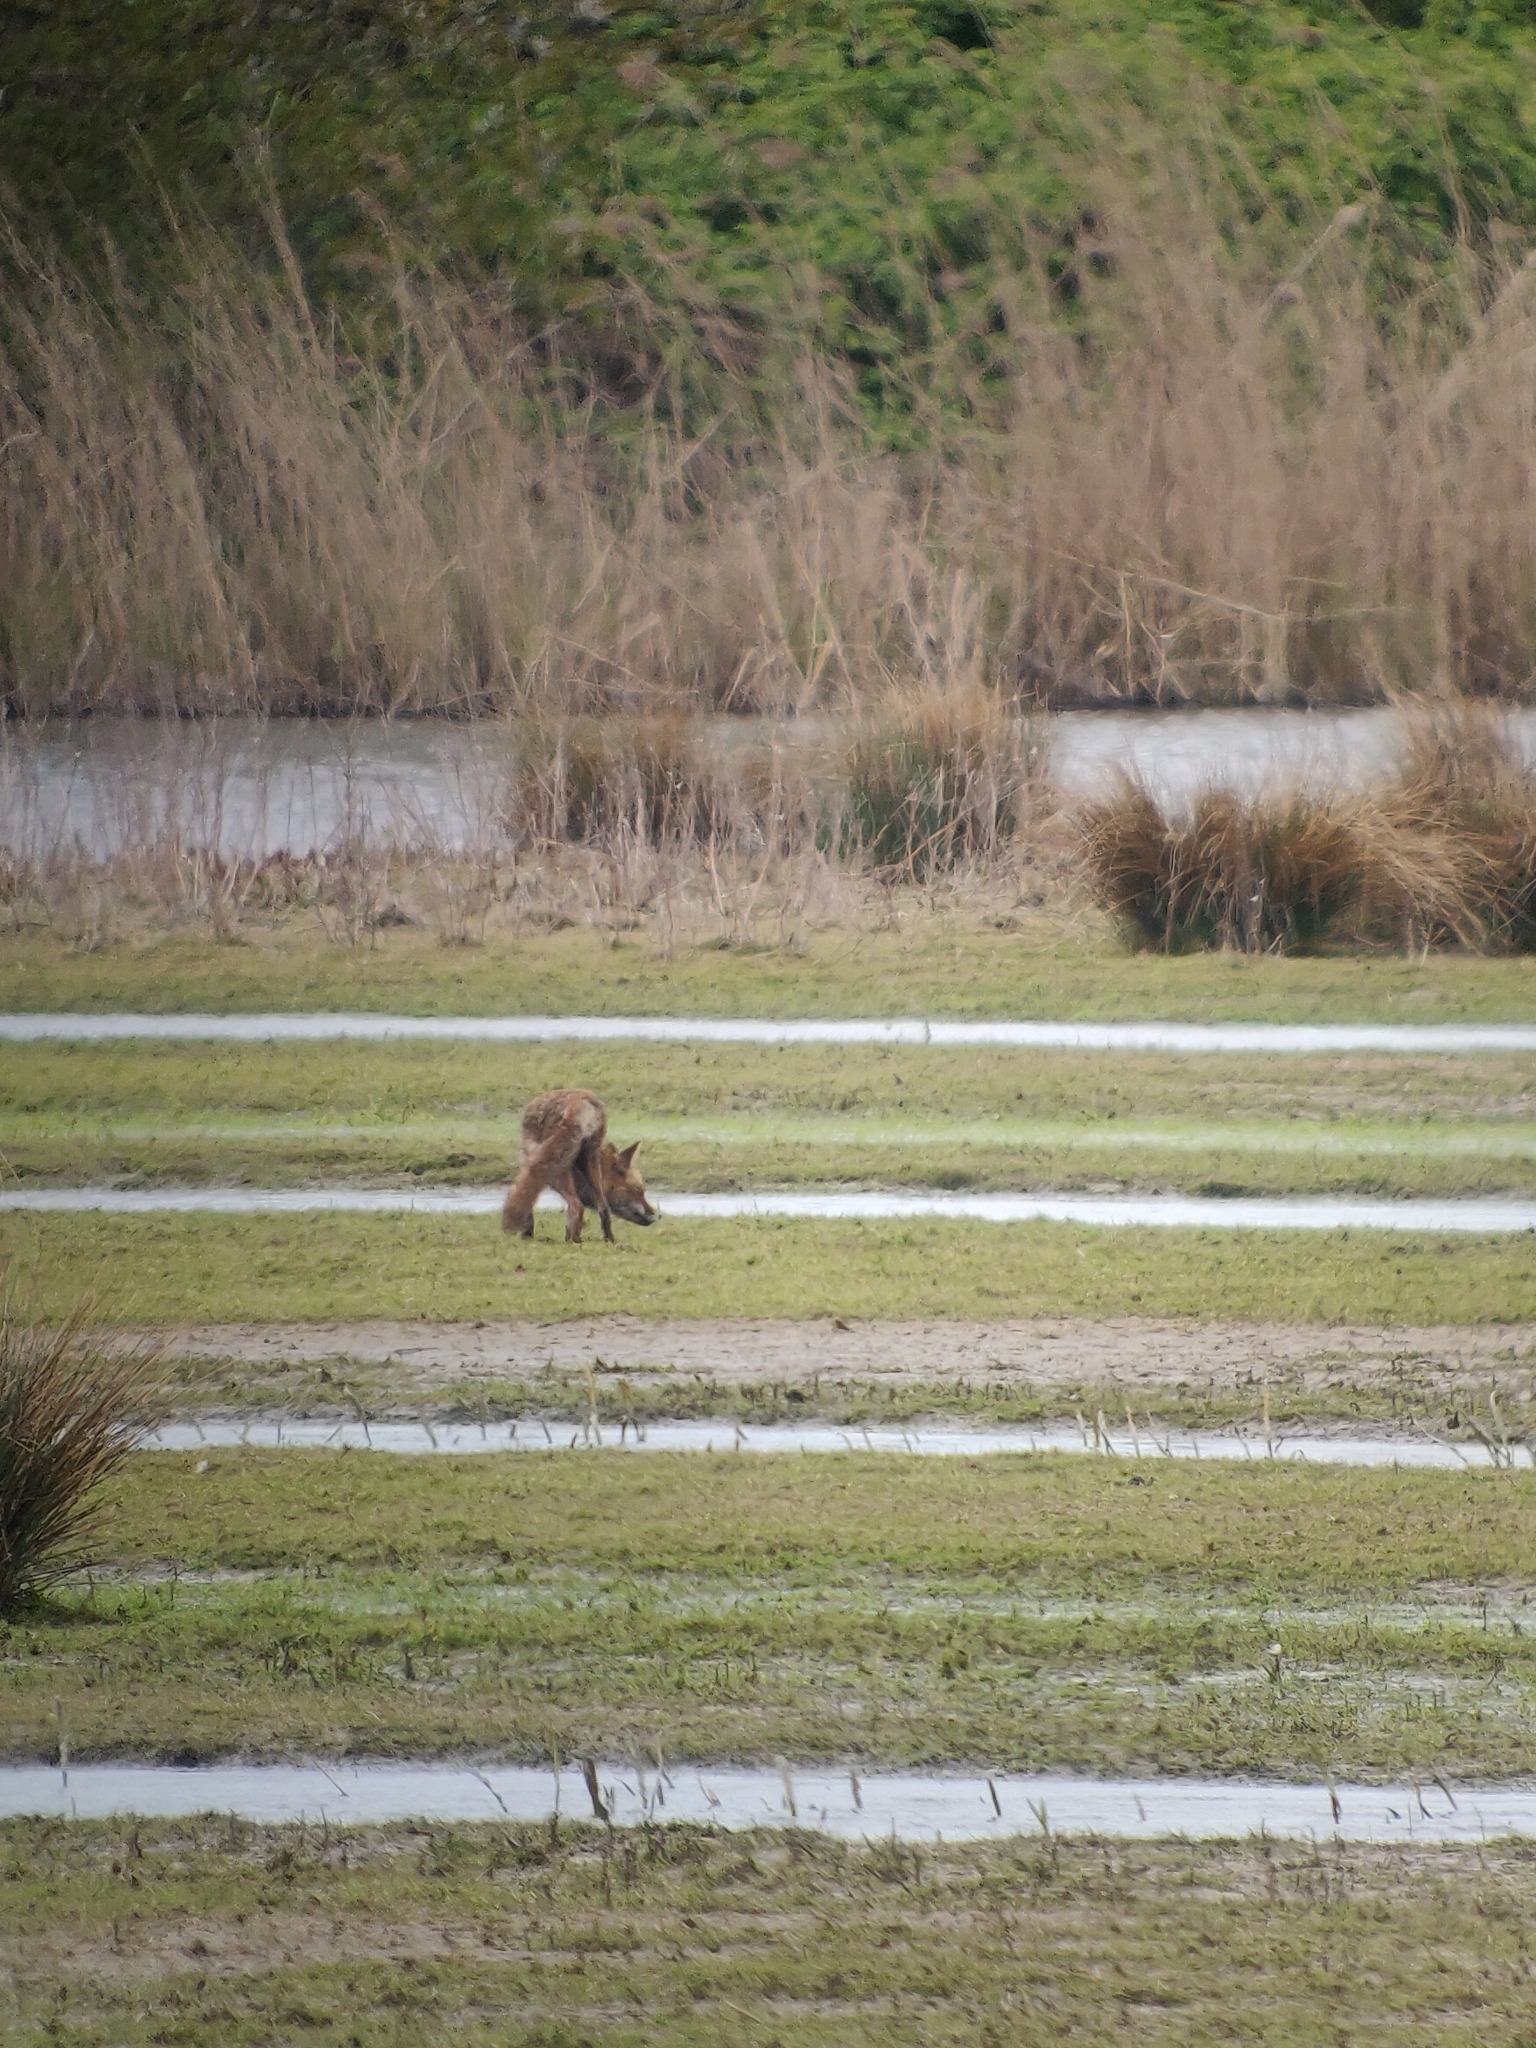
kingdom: Animalia
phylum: Chordata
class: Mammalia
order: Carnivora
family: Canidae
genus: Vulpes
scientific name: Vulpes vulpes
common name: Red fox
